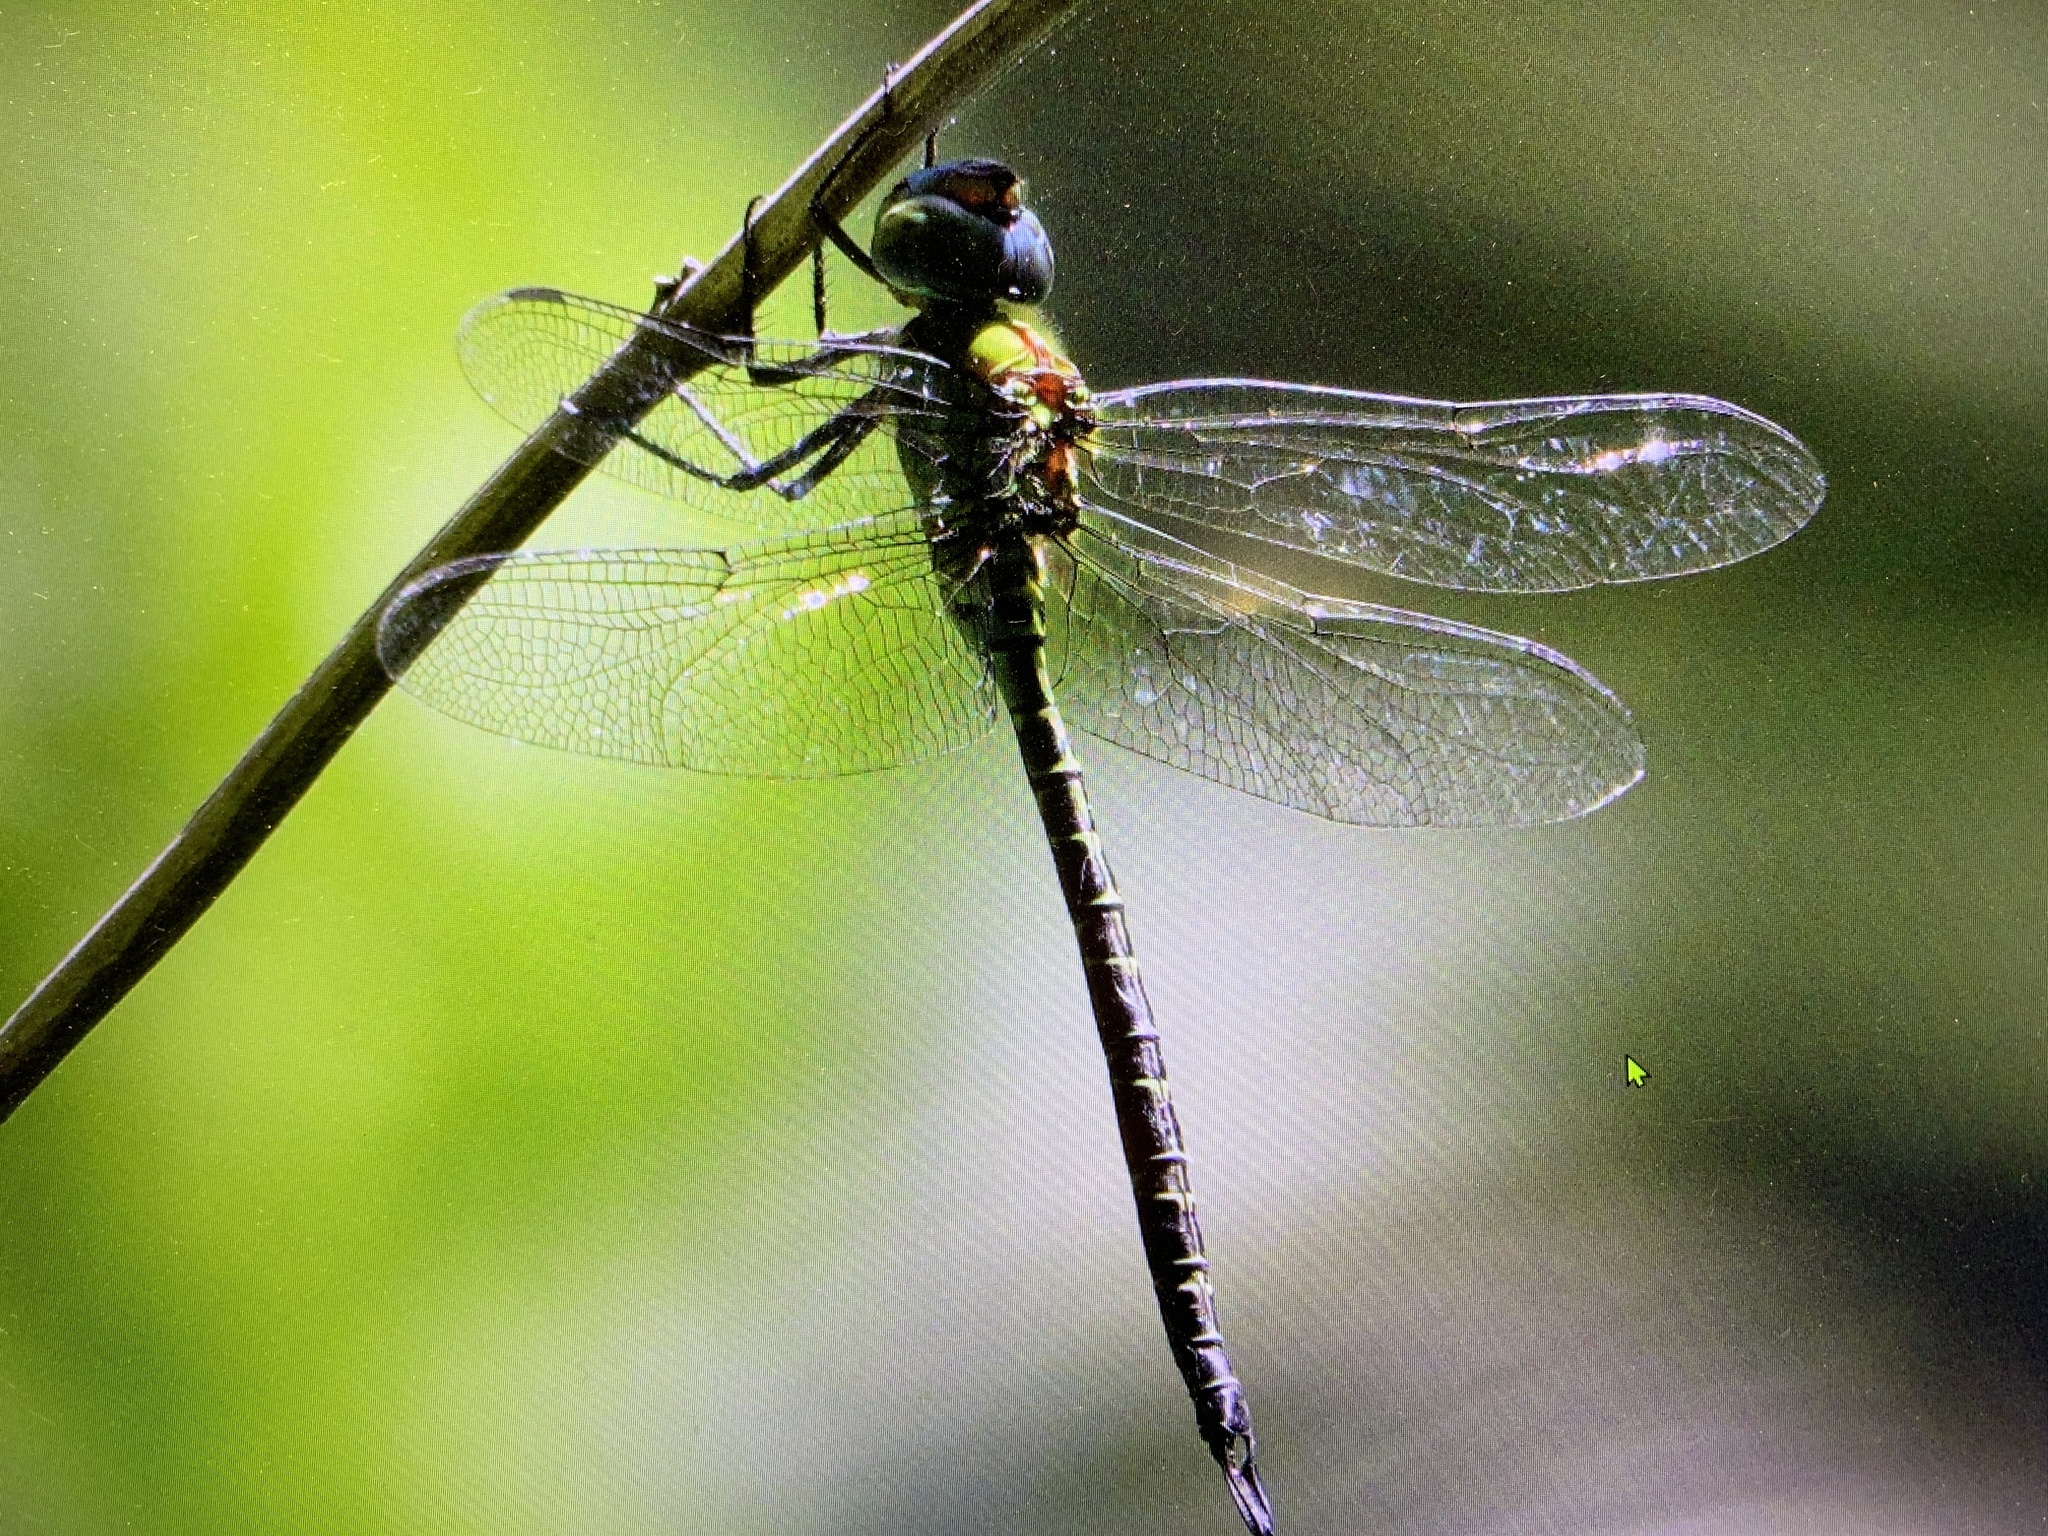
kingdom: Animalia
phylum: Arthropoda
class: Insecta
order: Odonata
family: Aeshnidae
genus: Coryphaeschna
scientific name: Coryphaeschna adnexa
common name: Blue-faced darner
